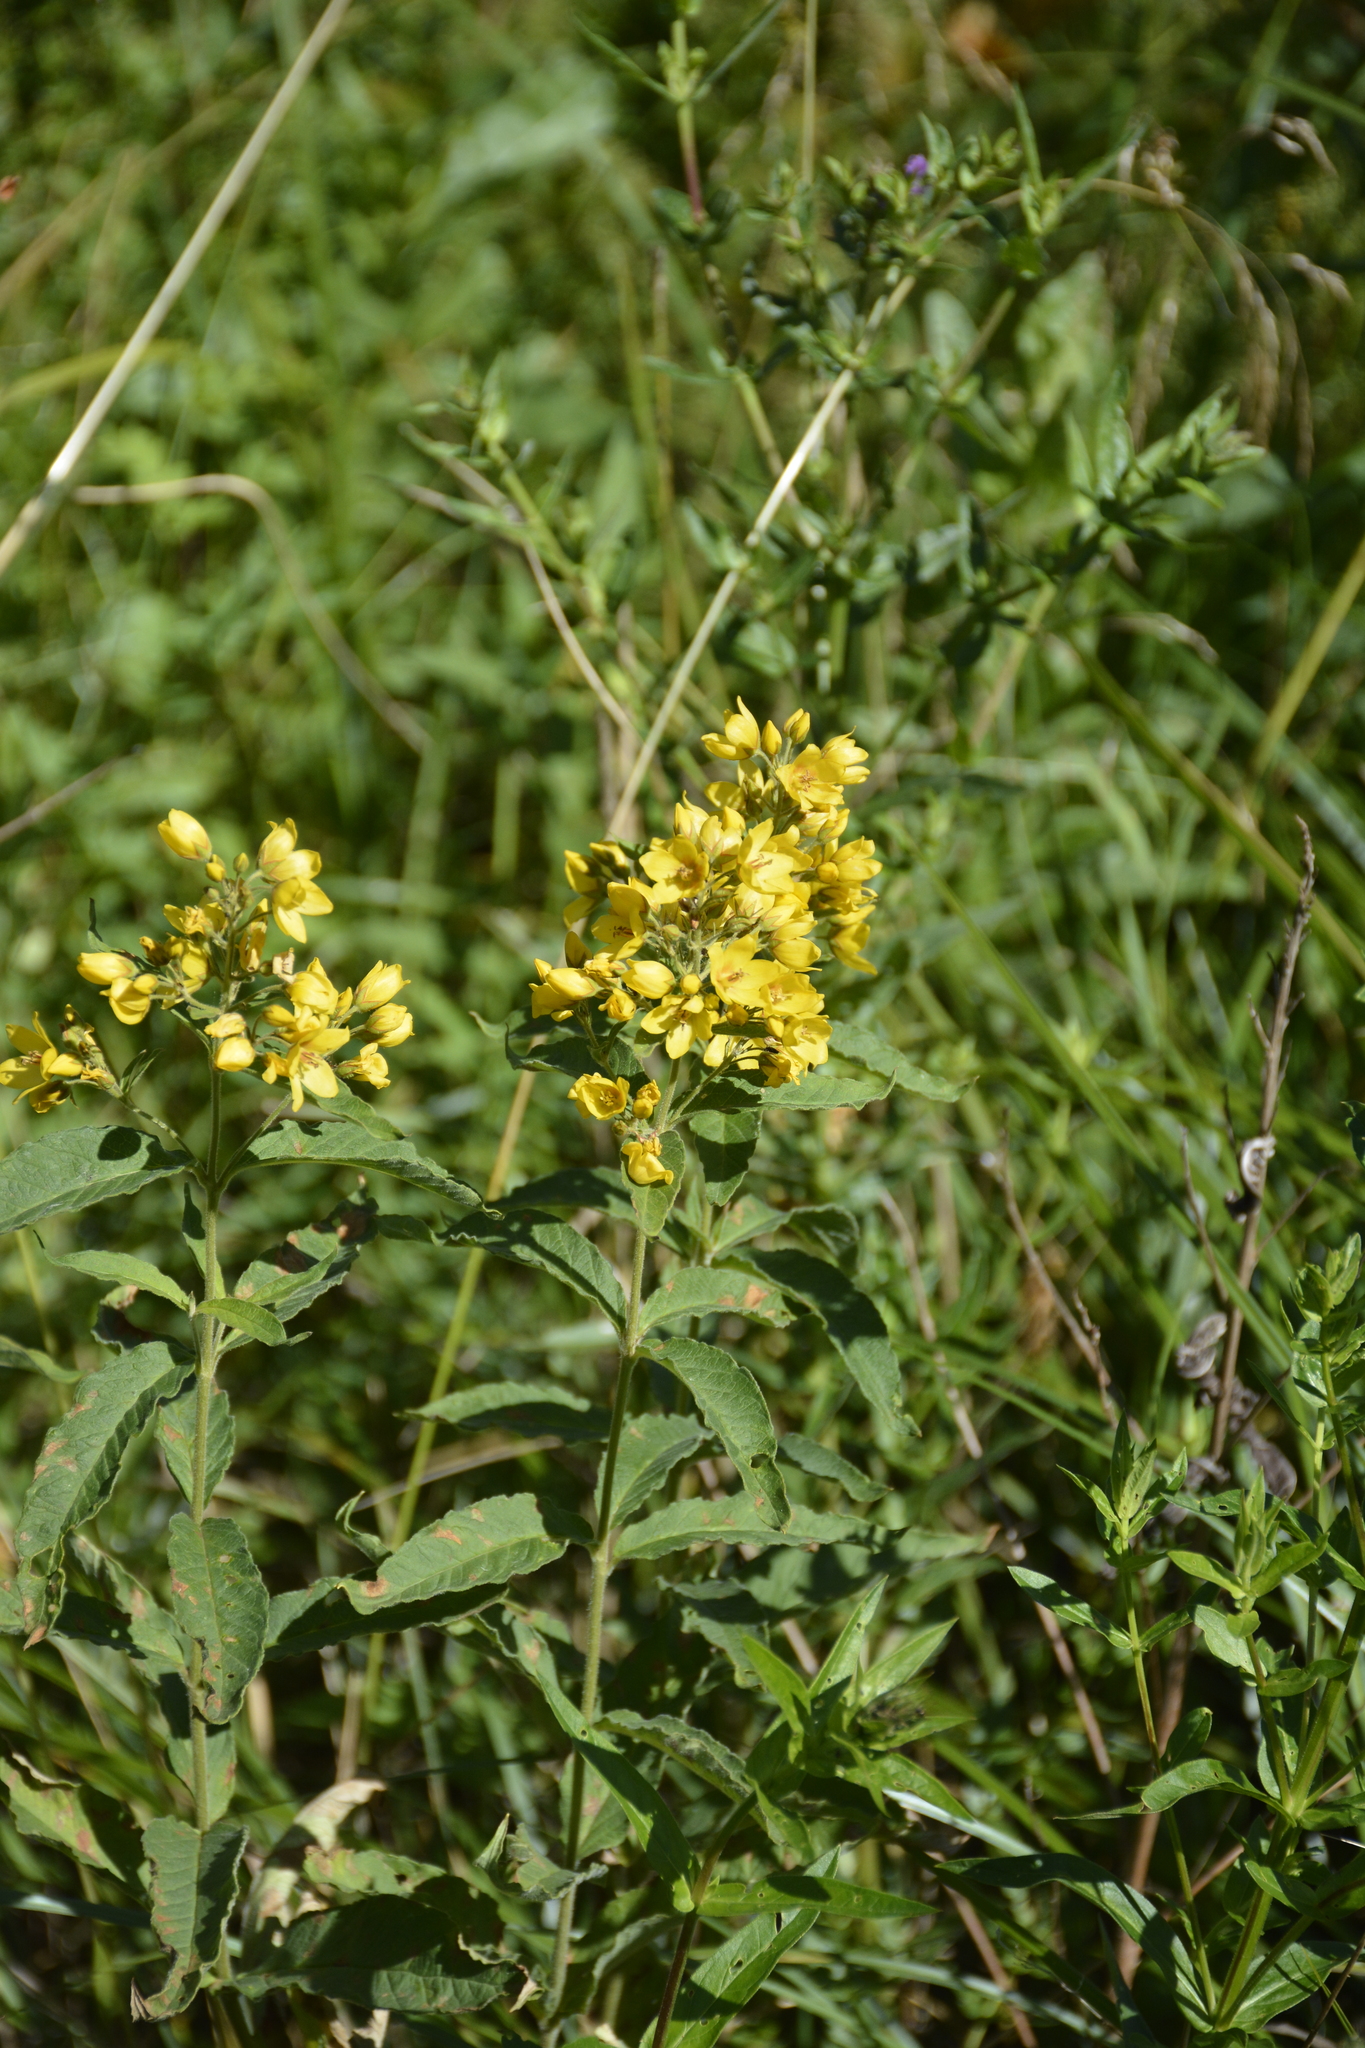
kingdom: Plantae
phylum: Tracheophyta
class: Magnoliopsida
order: Ericales
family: Primulaceae
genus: Lysimachia
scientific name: Lysimachia vulgaris
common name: Yellow loosestrife
